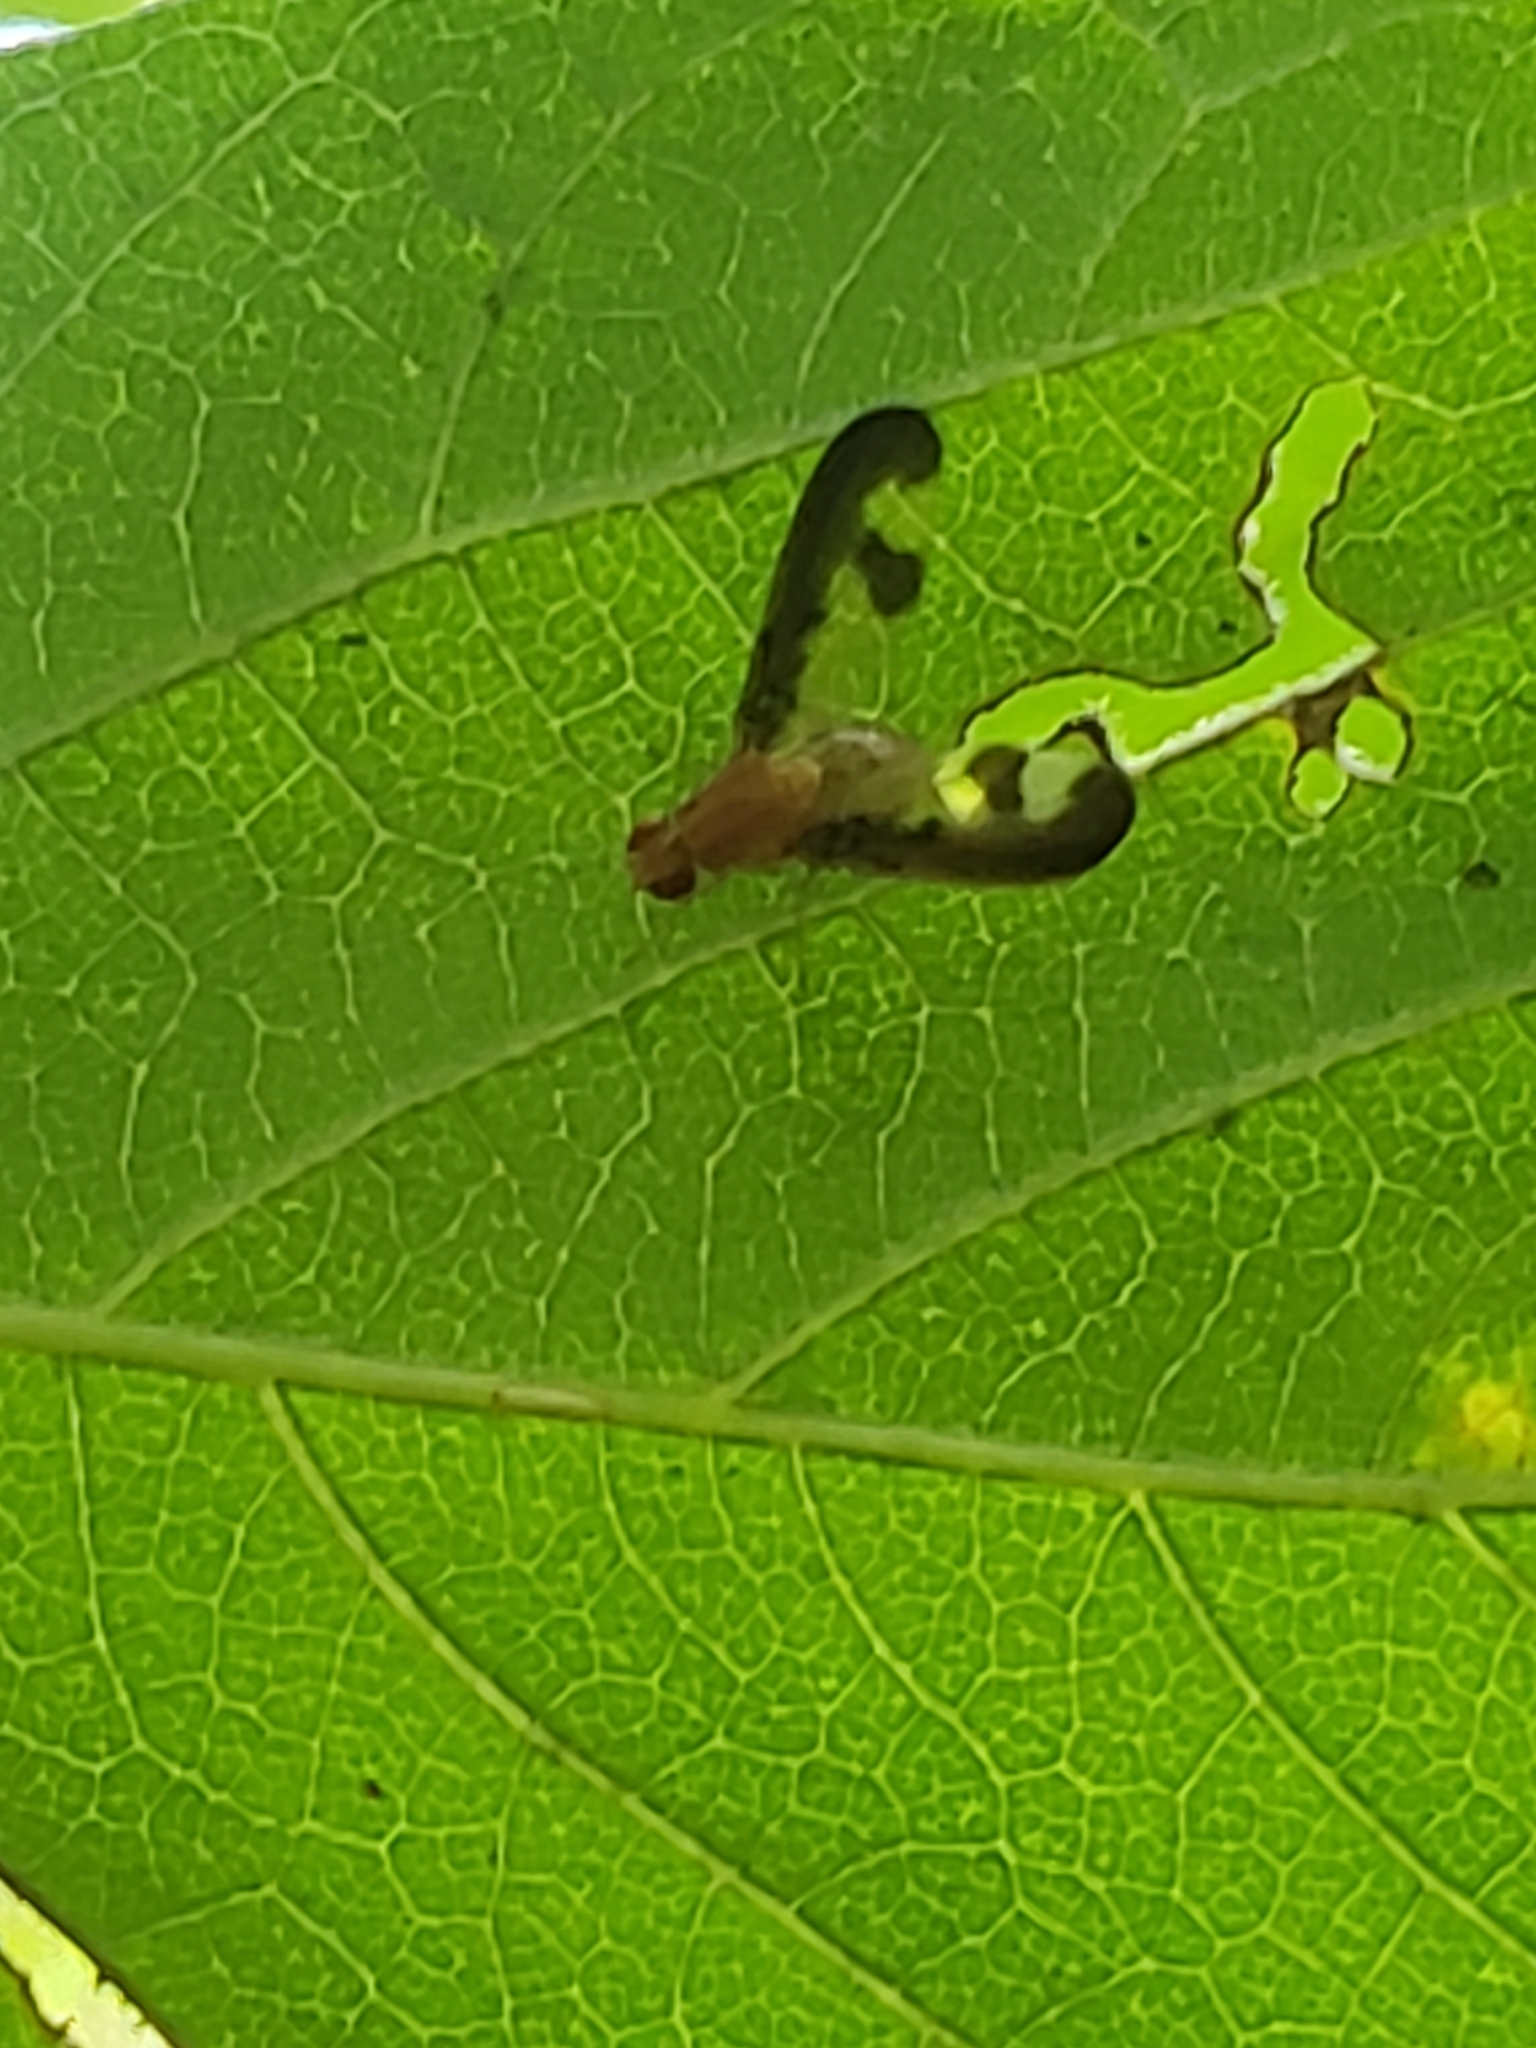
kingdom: Animalia
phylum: Arthropoda
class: Insecta
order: Diptera
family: Pallopteridae
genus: Toxonevra
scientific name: Toxonevra superba
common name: Antlered flutter fly
